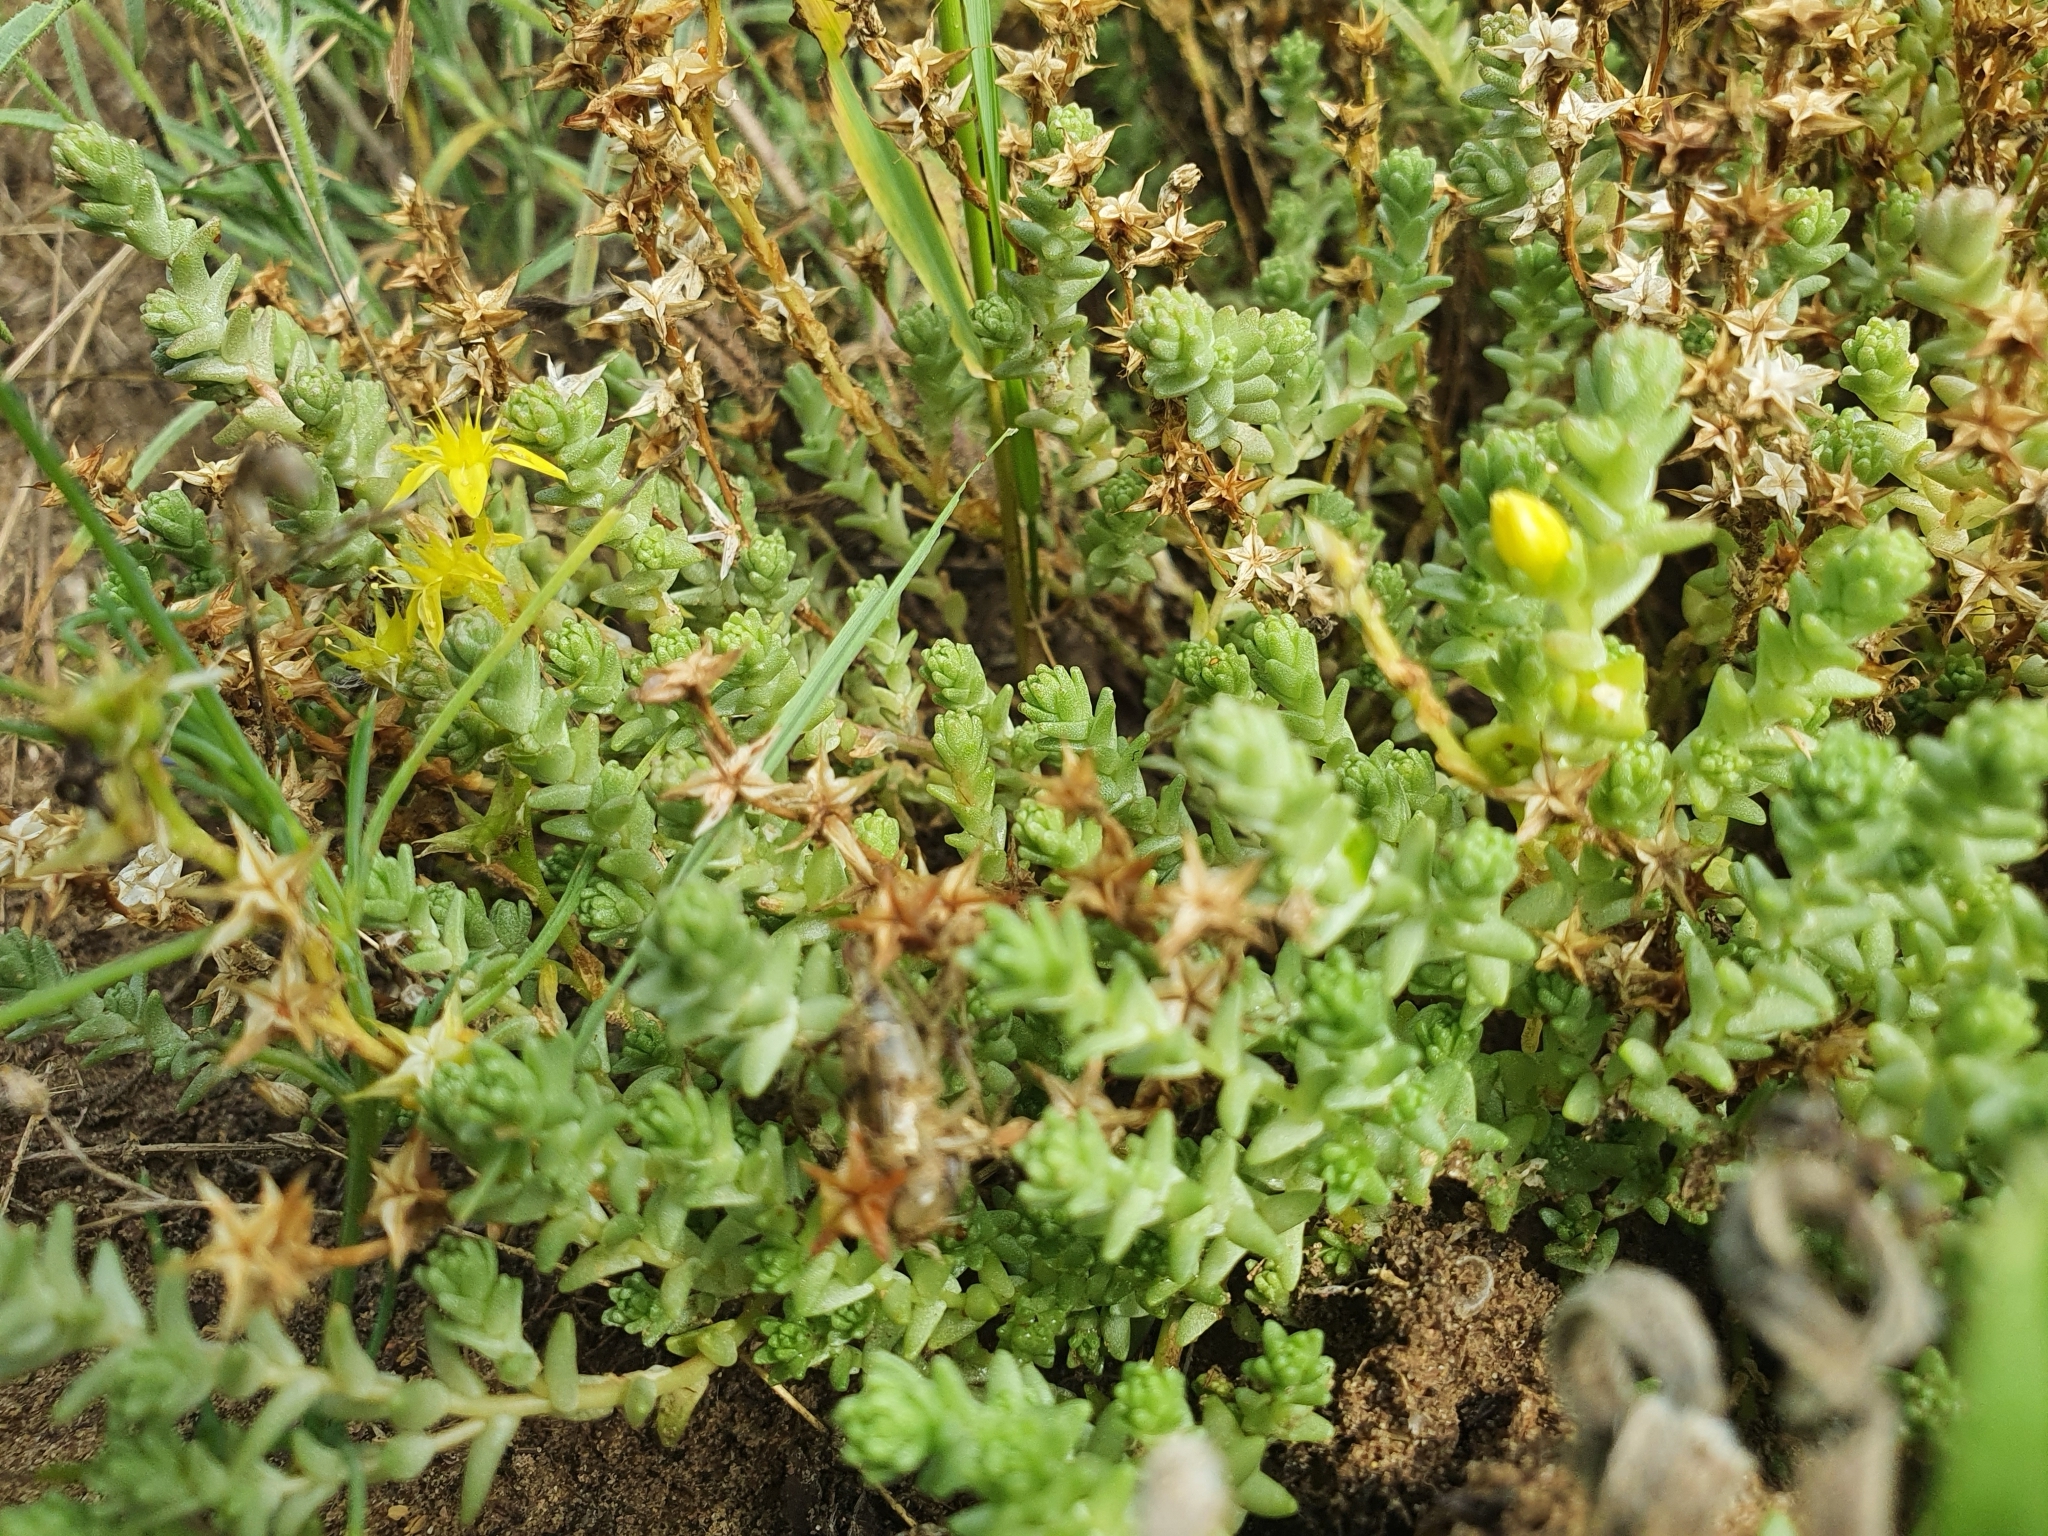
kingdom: Plantae
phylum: Tracheophyta
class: Magnoliopsida
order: Saxifragales
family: Crassulaceae
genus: Sedum
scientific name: Sedum acre
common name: Biting stonecrop
